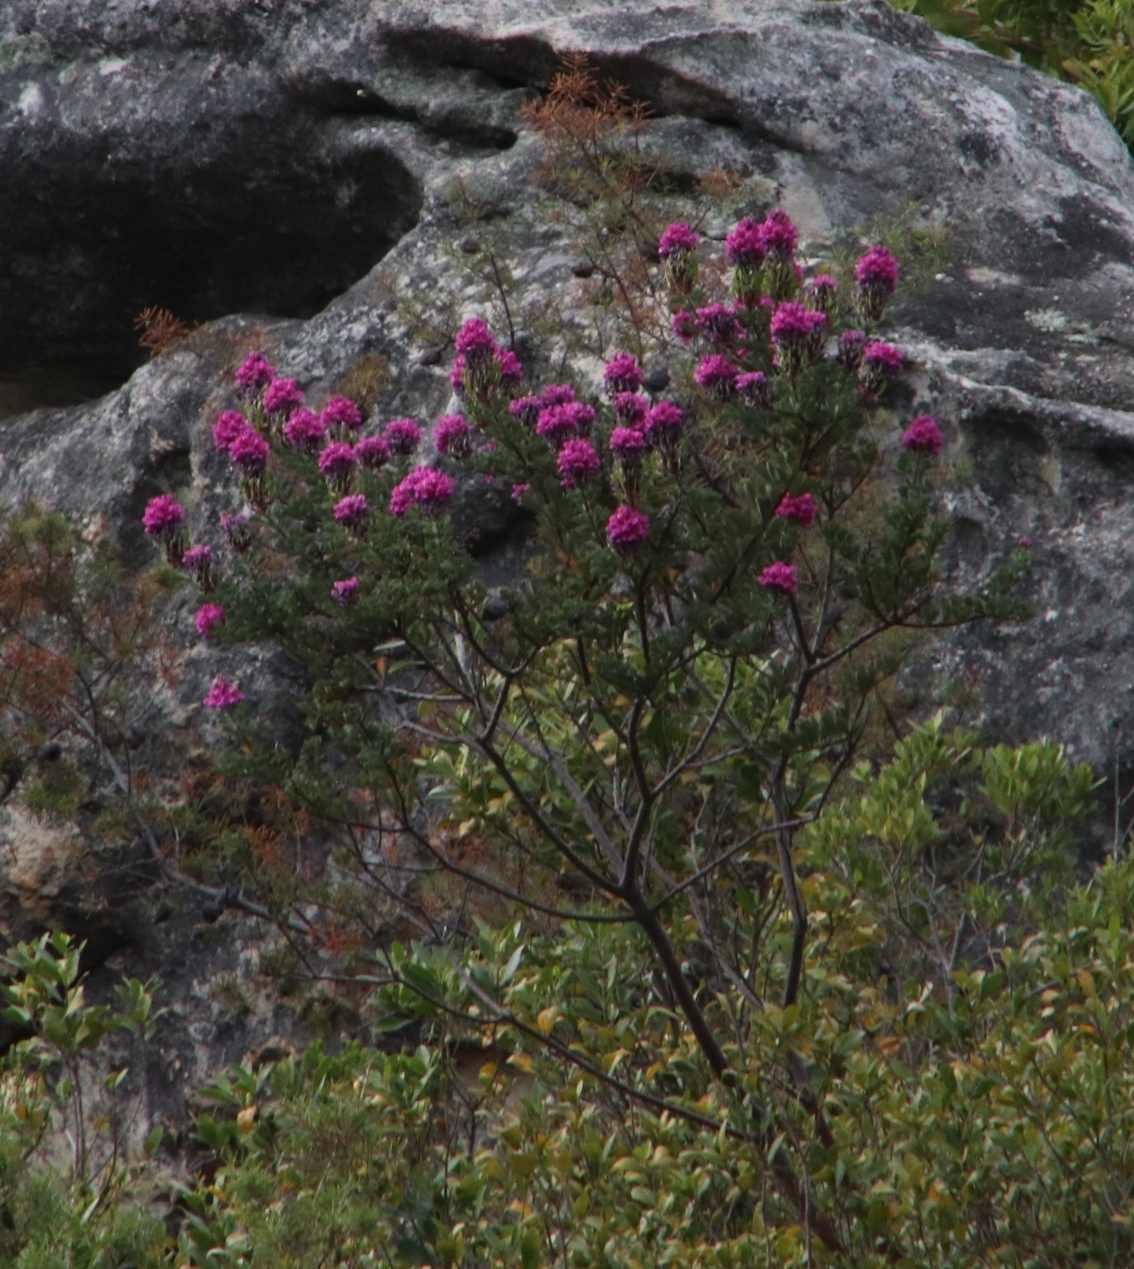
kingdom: Plantae
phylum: Tracheophyta
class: Magnoliopsida
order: Fabales
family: Fabaceae
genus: Hypocalyptus
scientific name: Hypocalyptus sophoroides
